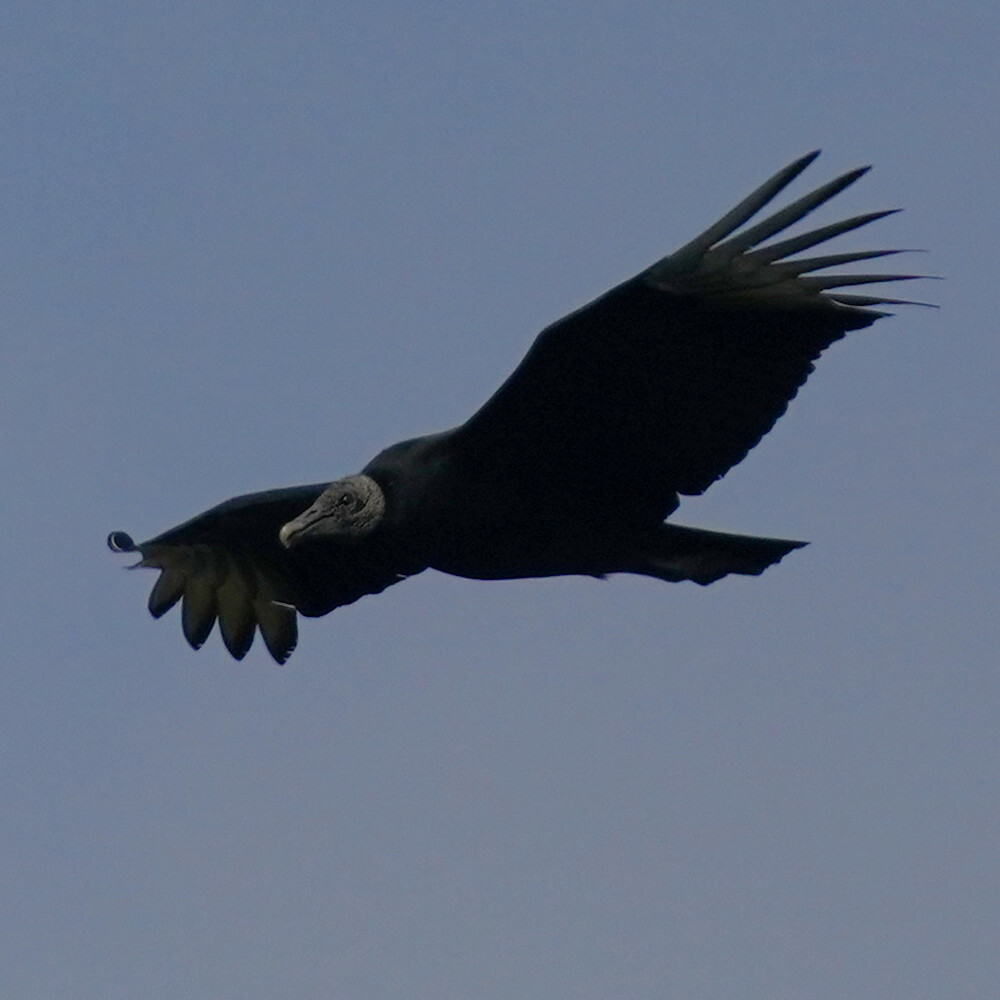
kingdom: Animalia
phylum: Chordata
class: Aves
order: Accipitriformes
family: Cathartidae
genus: Coragyps
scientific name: Coragyps atratus
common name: Black vulture
